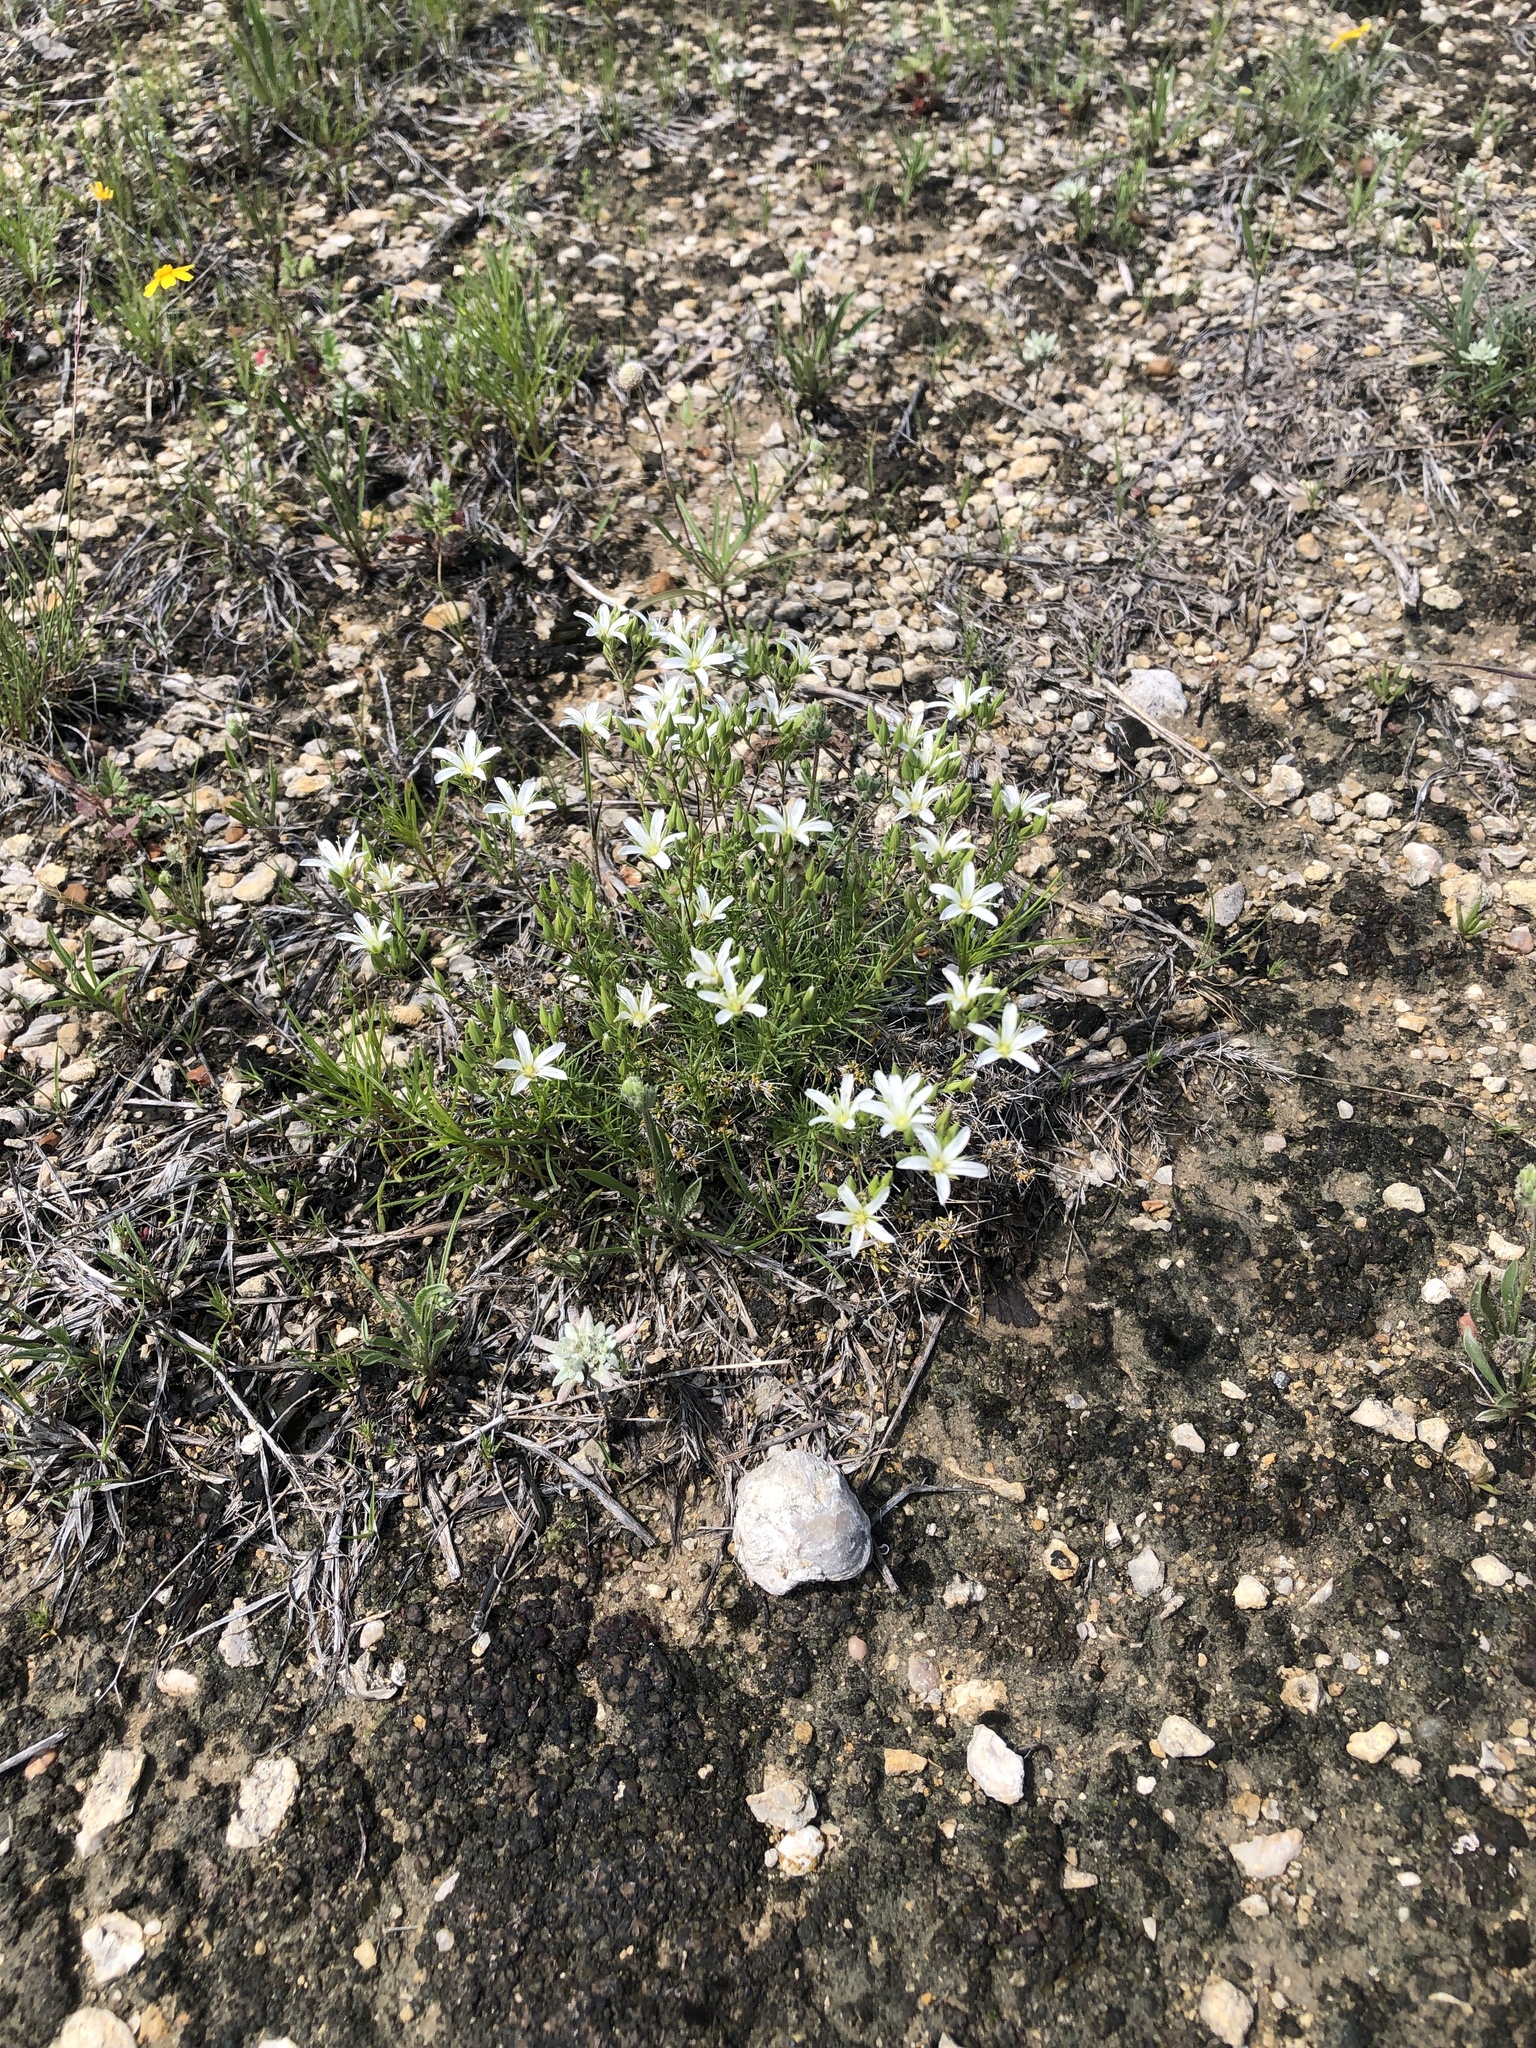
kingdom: Plantae
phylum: Tracheophyta
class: Magnoliopsida
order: Caryophyllales
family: Caryophyllaceae
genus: Sabulina
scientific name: Sabulina michauxii
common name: Michaux's stitchwort
